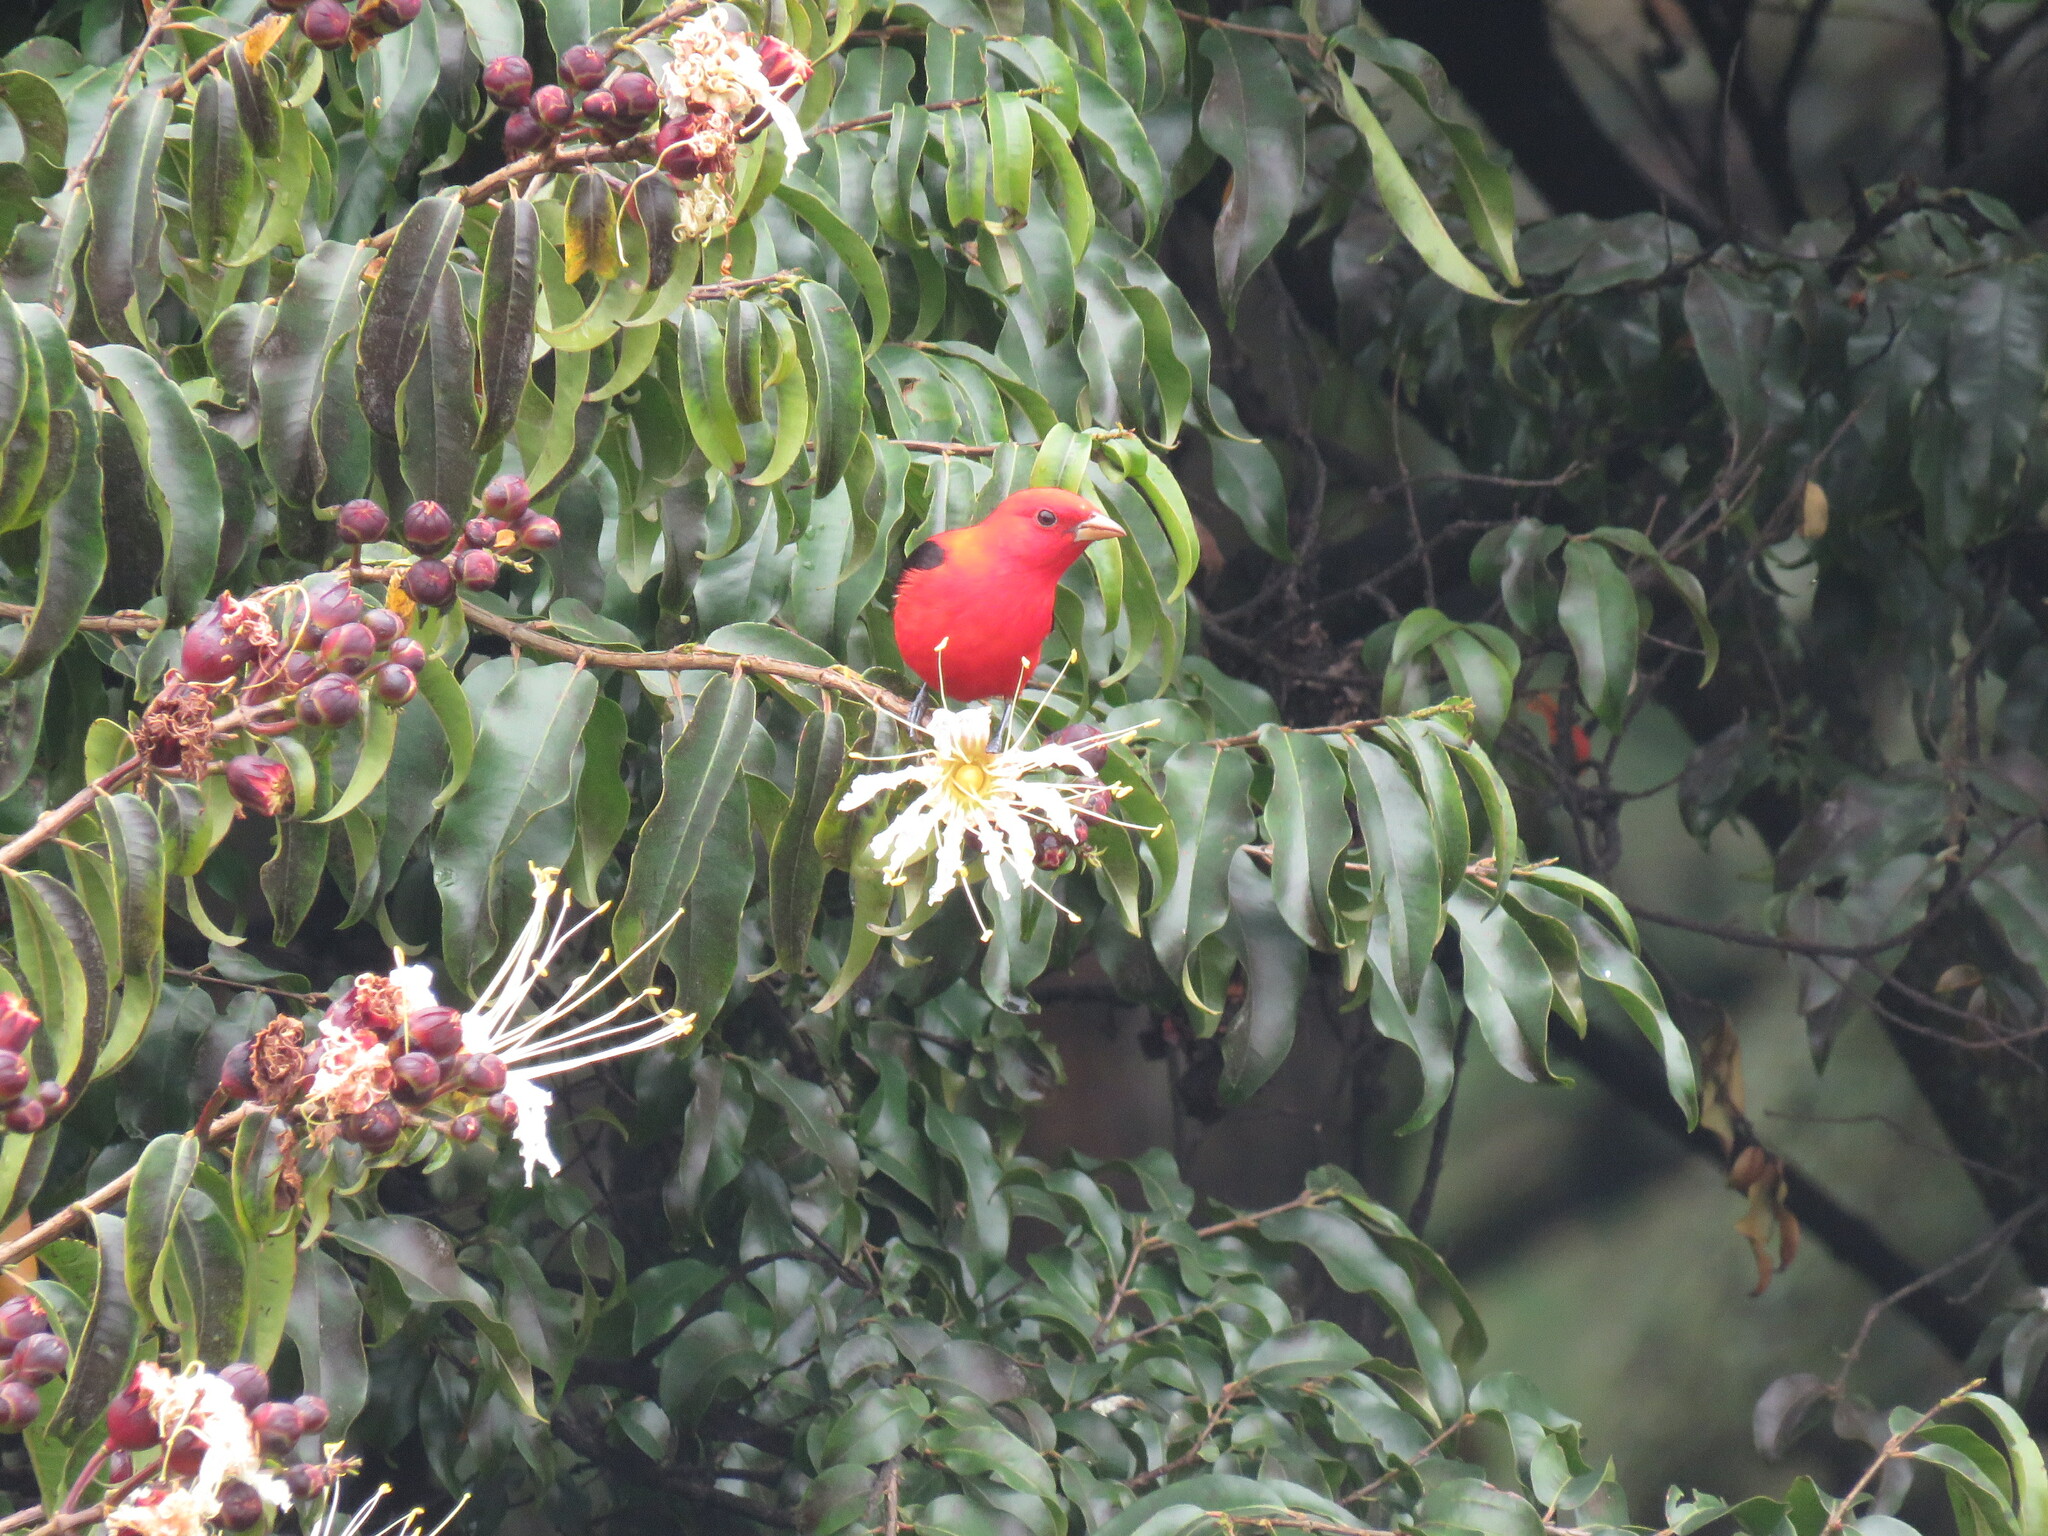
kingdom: Animalia
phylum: Chordata
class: Aves
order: Passeriformes
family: Cardinalidae
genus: Piranga
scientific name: Piranga olivacea
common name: Scarlet tanager
